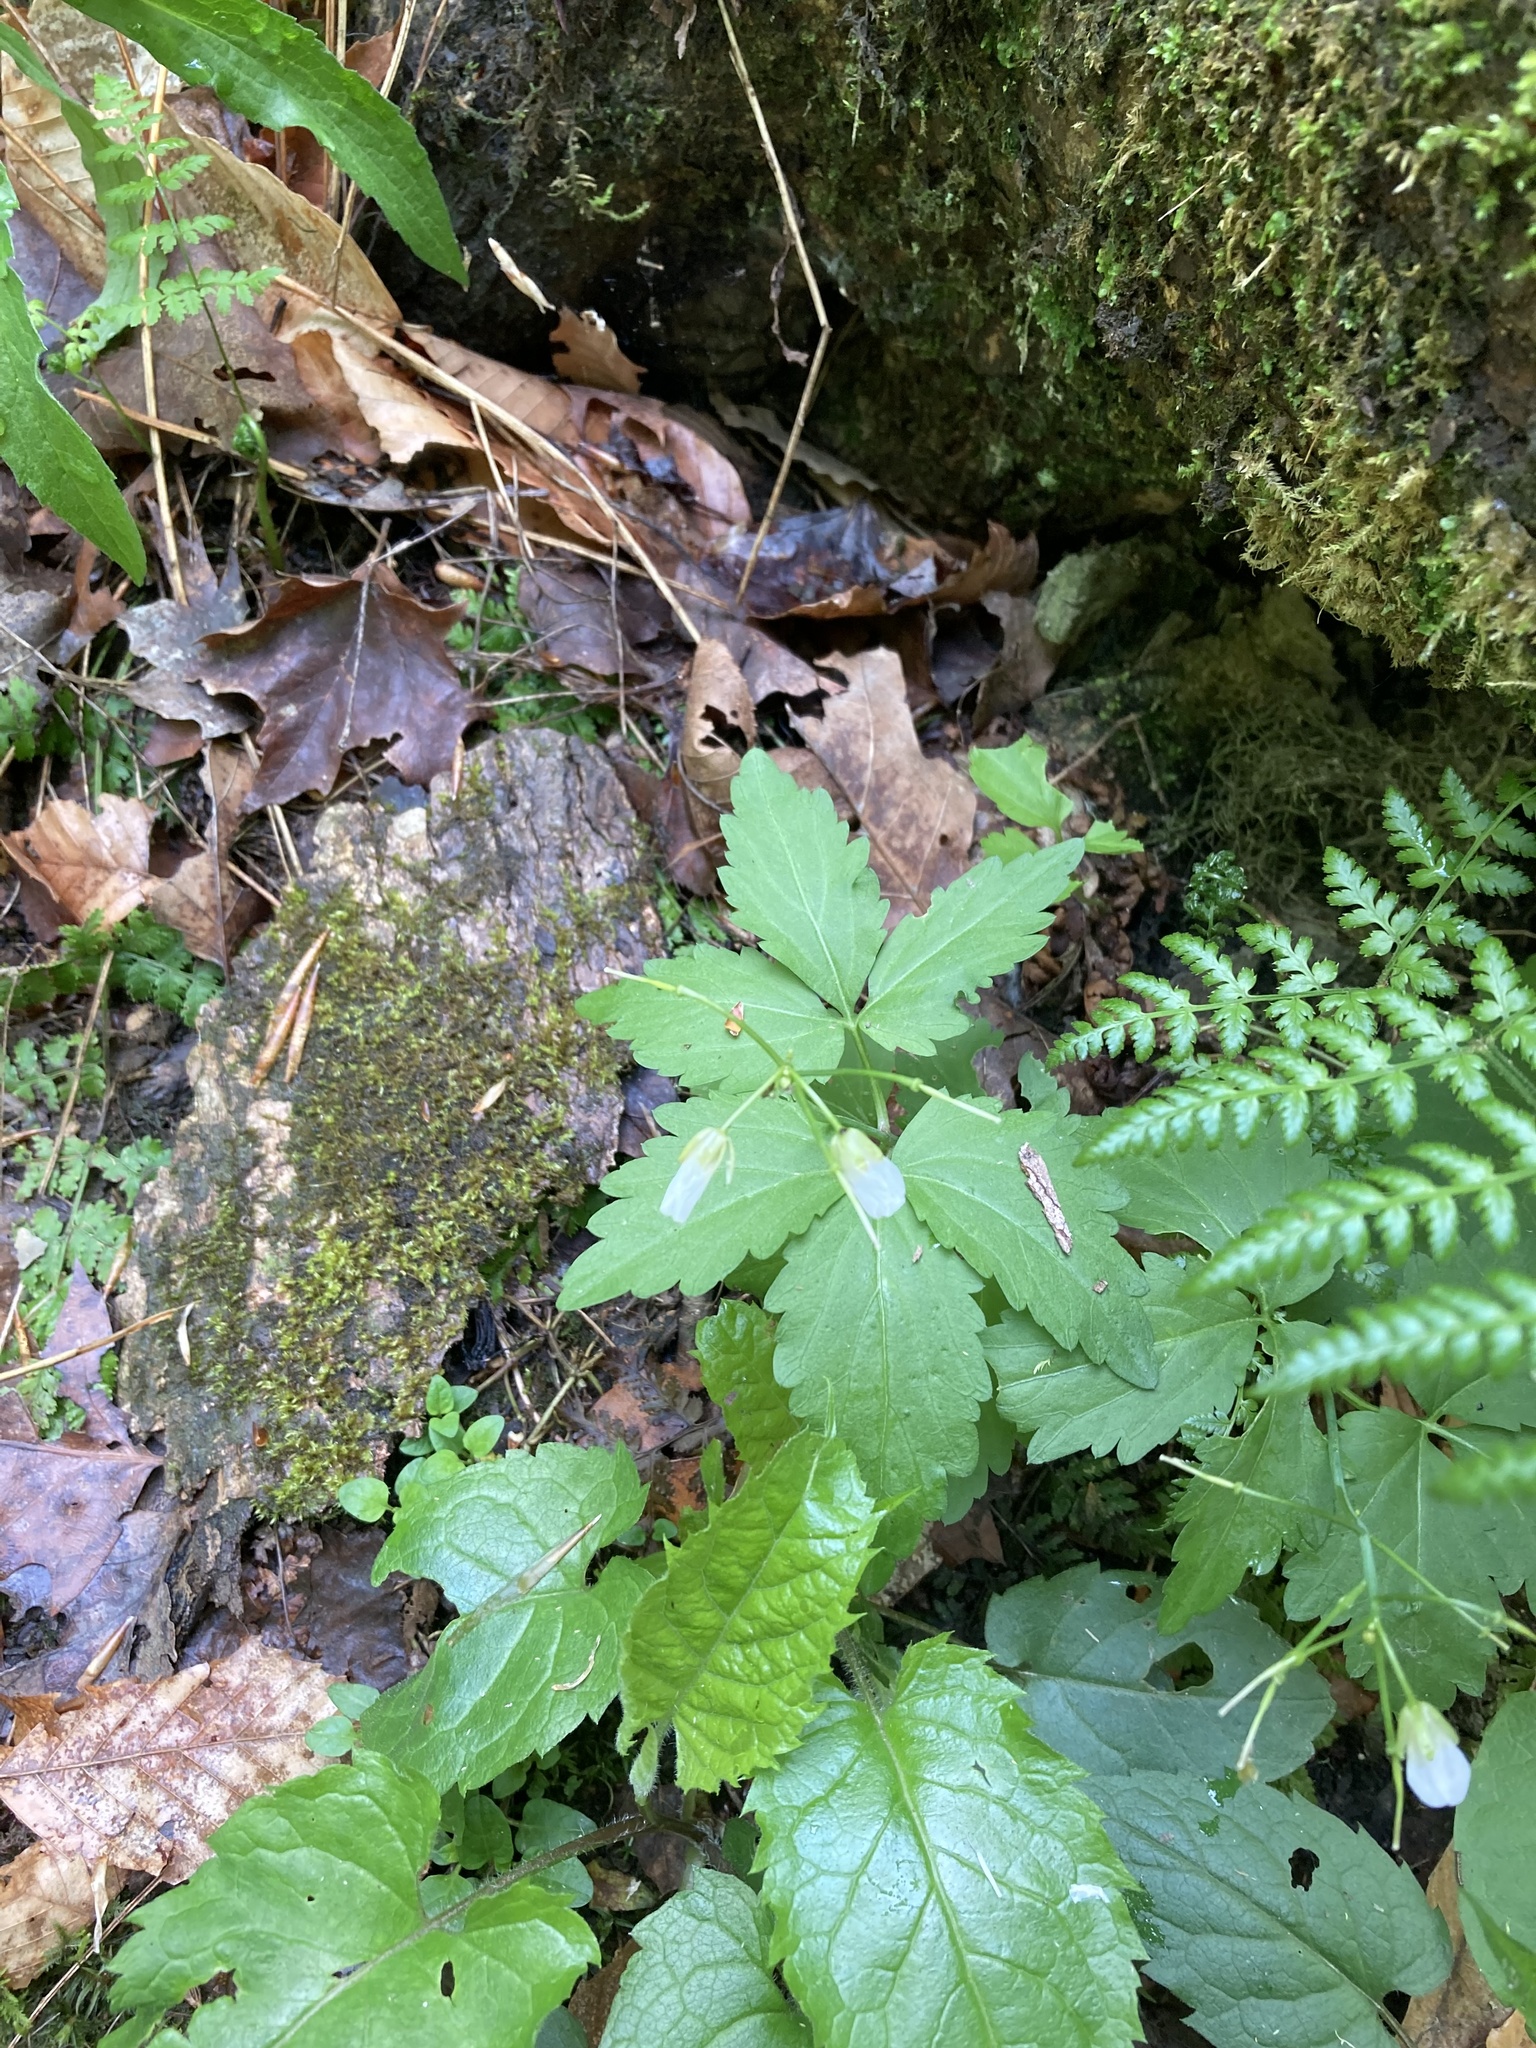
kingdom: Plantae
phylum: Tracheophyta
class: Magnoliopsida
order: Brassicales
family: Brassicaceae
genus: Cardamine
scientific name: Cardamine diphylla
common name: Broad-leaved toothwort
